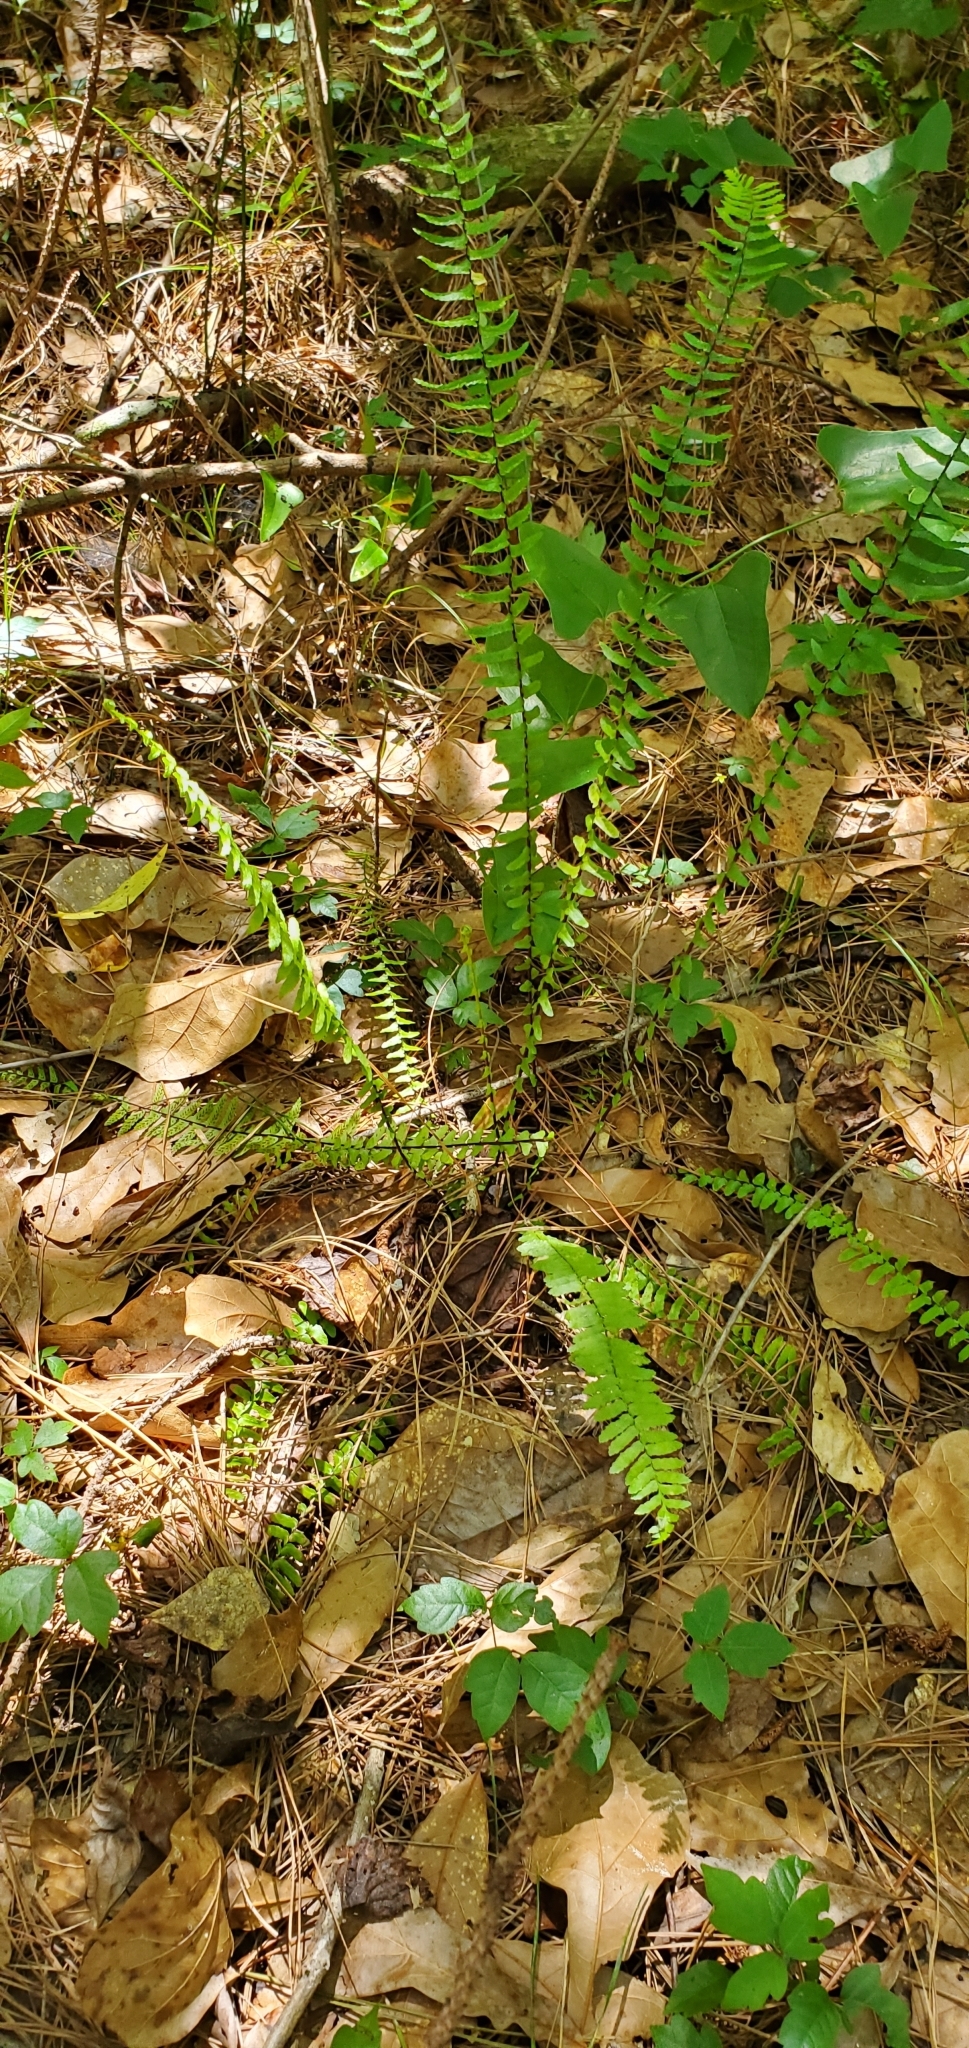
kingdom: Plantae
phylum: Tracheophyta
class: Polypodiopsida
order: Polypodiales
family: Aspleniaceae
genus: Asplenium
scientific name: Asplenium platyneuron
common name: Ebony spleenwort
